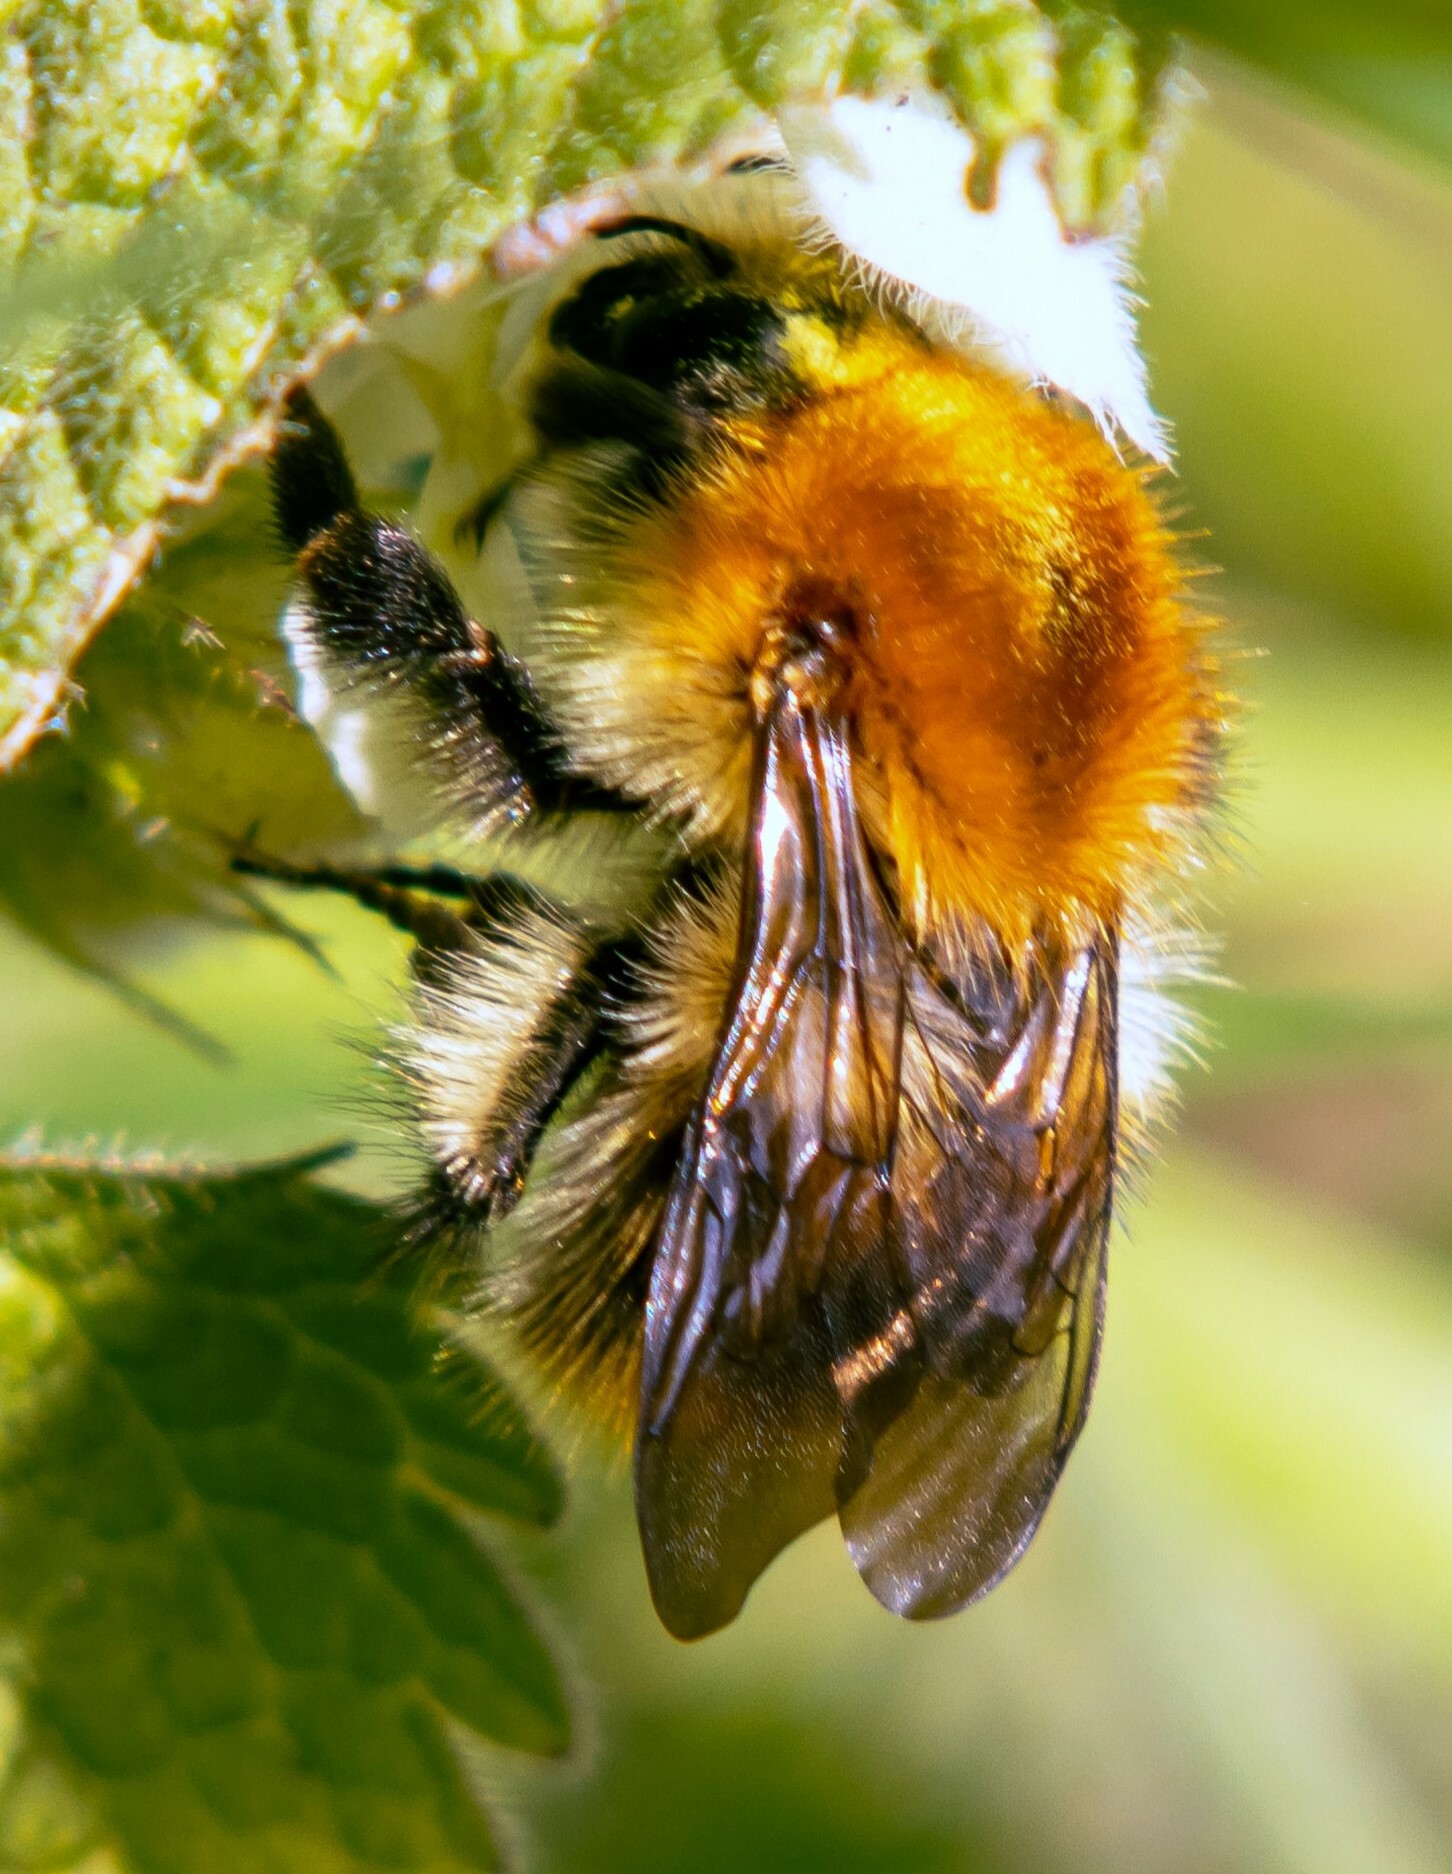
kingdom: Animalia
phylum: Arthropoda
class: Insecta
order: Hymenoptera
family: Apidae
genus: Bombus
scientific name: Bombus hypnorum
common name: New garden bumblebee
